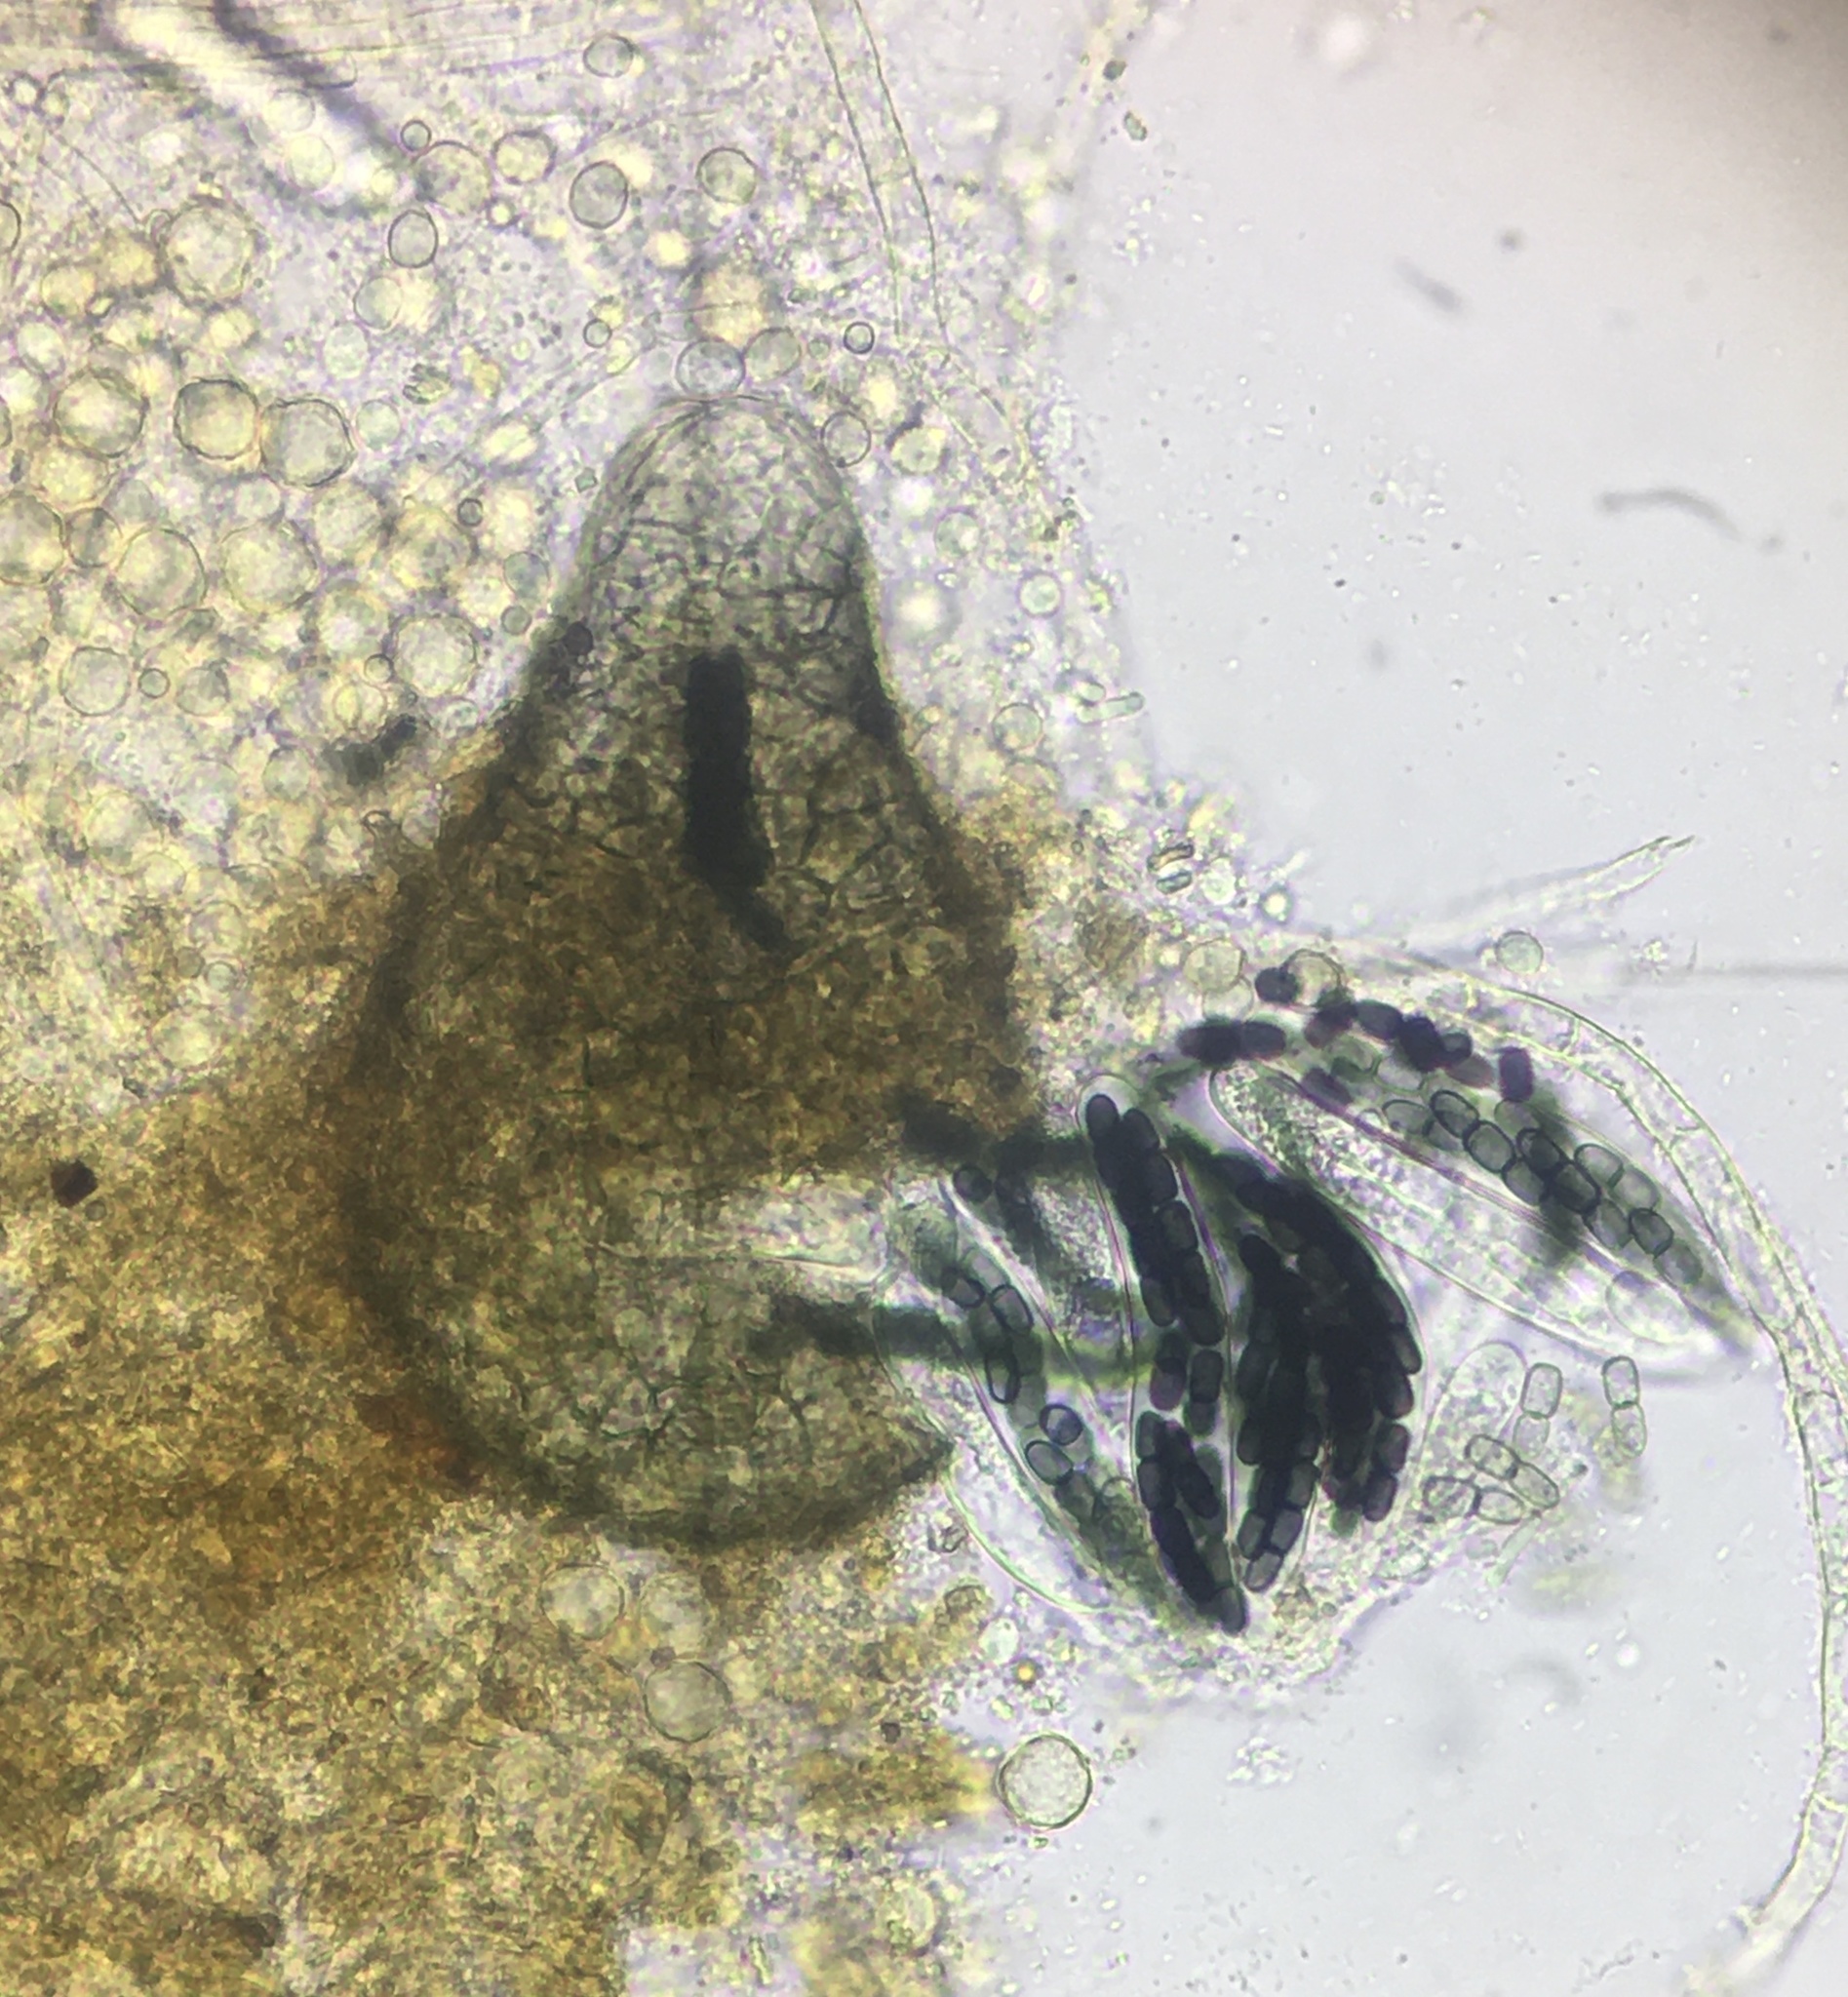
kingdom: Fungi
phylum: Ascomycota
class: Dothideomycetes
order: Pleosporales
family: Sporormiaceae
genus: Sporormiella
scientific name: Sporormiella minima
